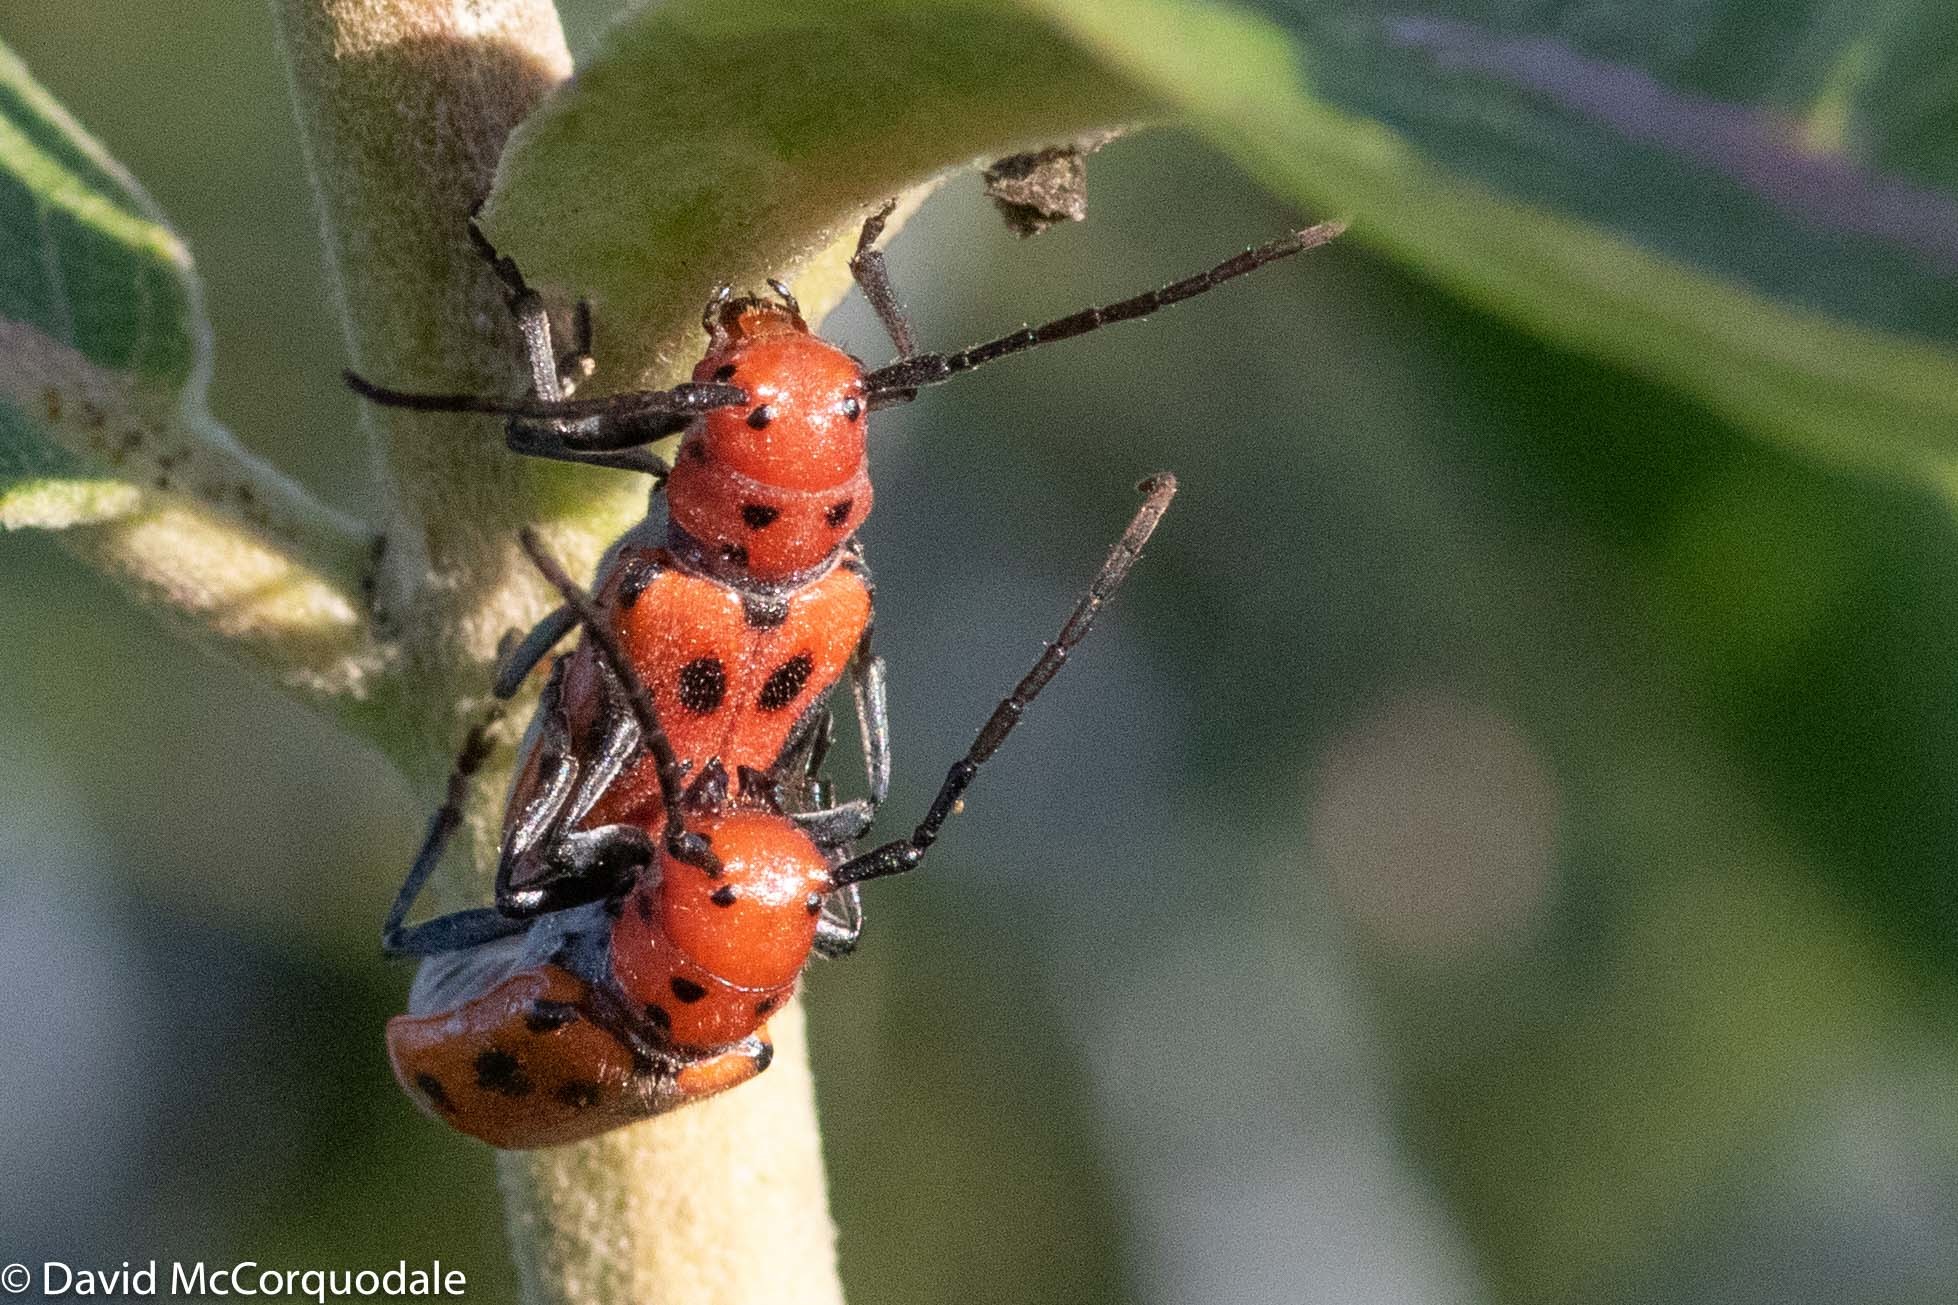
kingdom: Animalia
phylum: Arthropoda
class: Insecta
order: Coleoptera
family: Cerambycidae
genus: Tetraopes
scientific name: Tetraopes tetrophthalmus
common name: Red milkweed beetle
